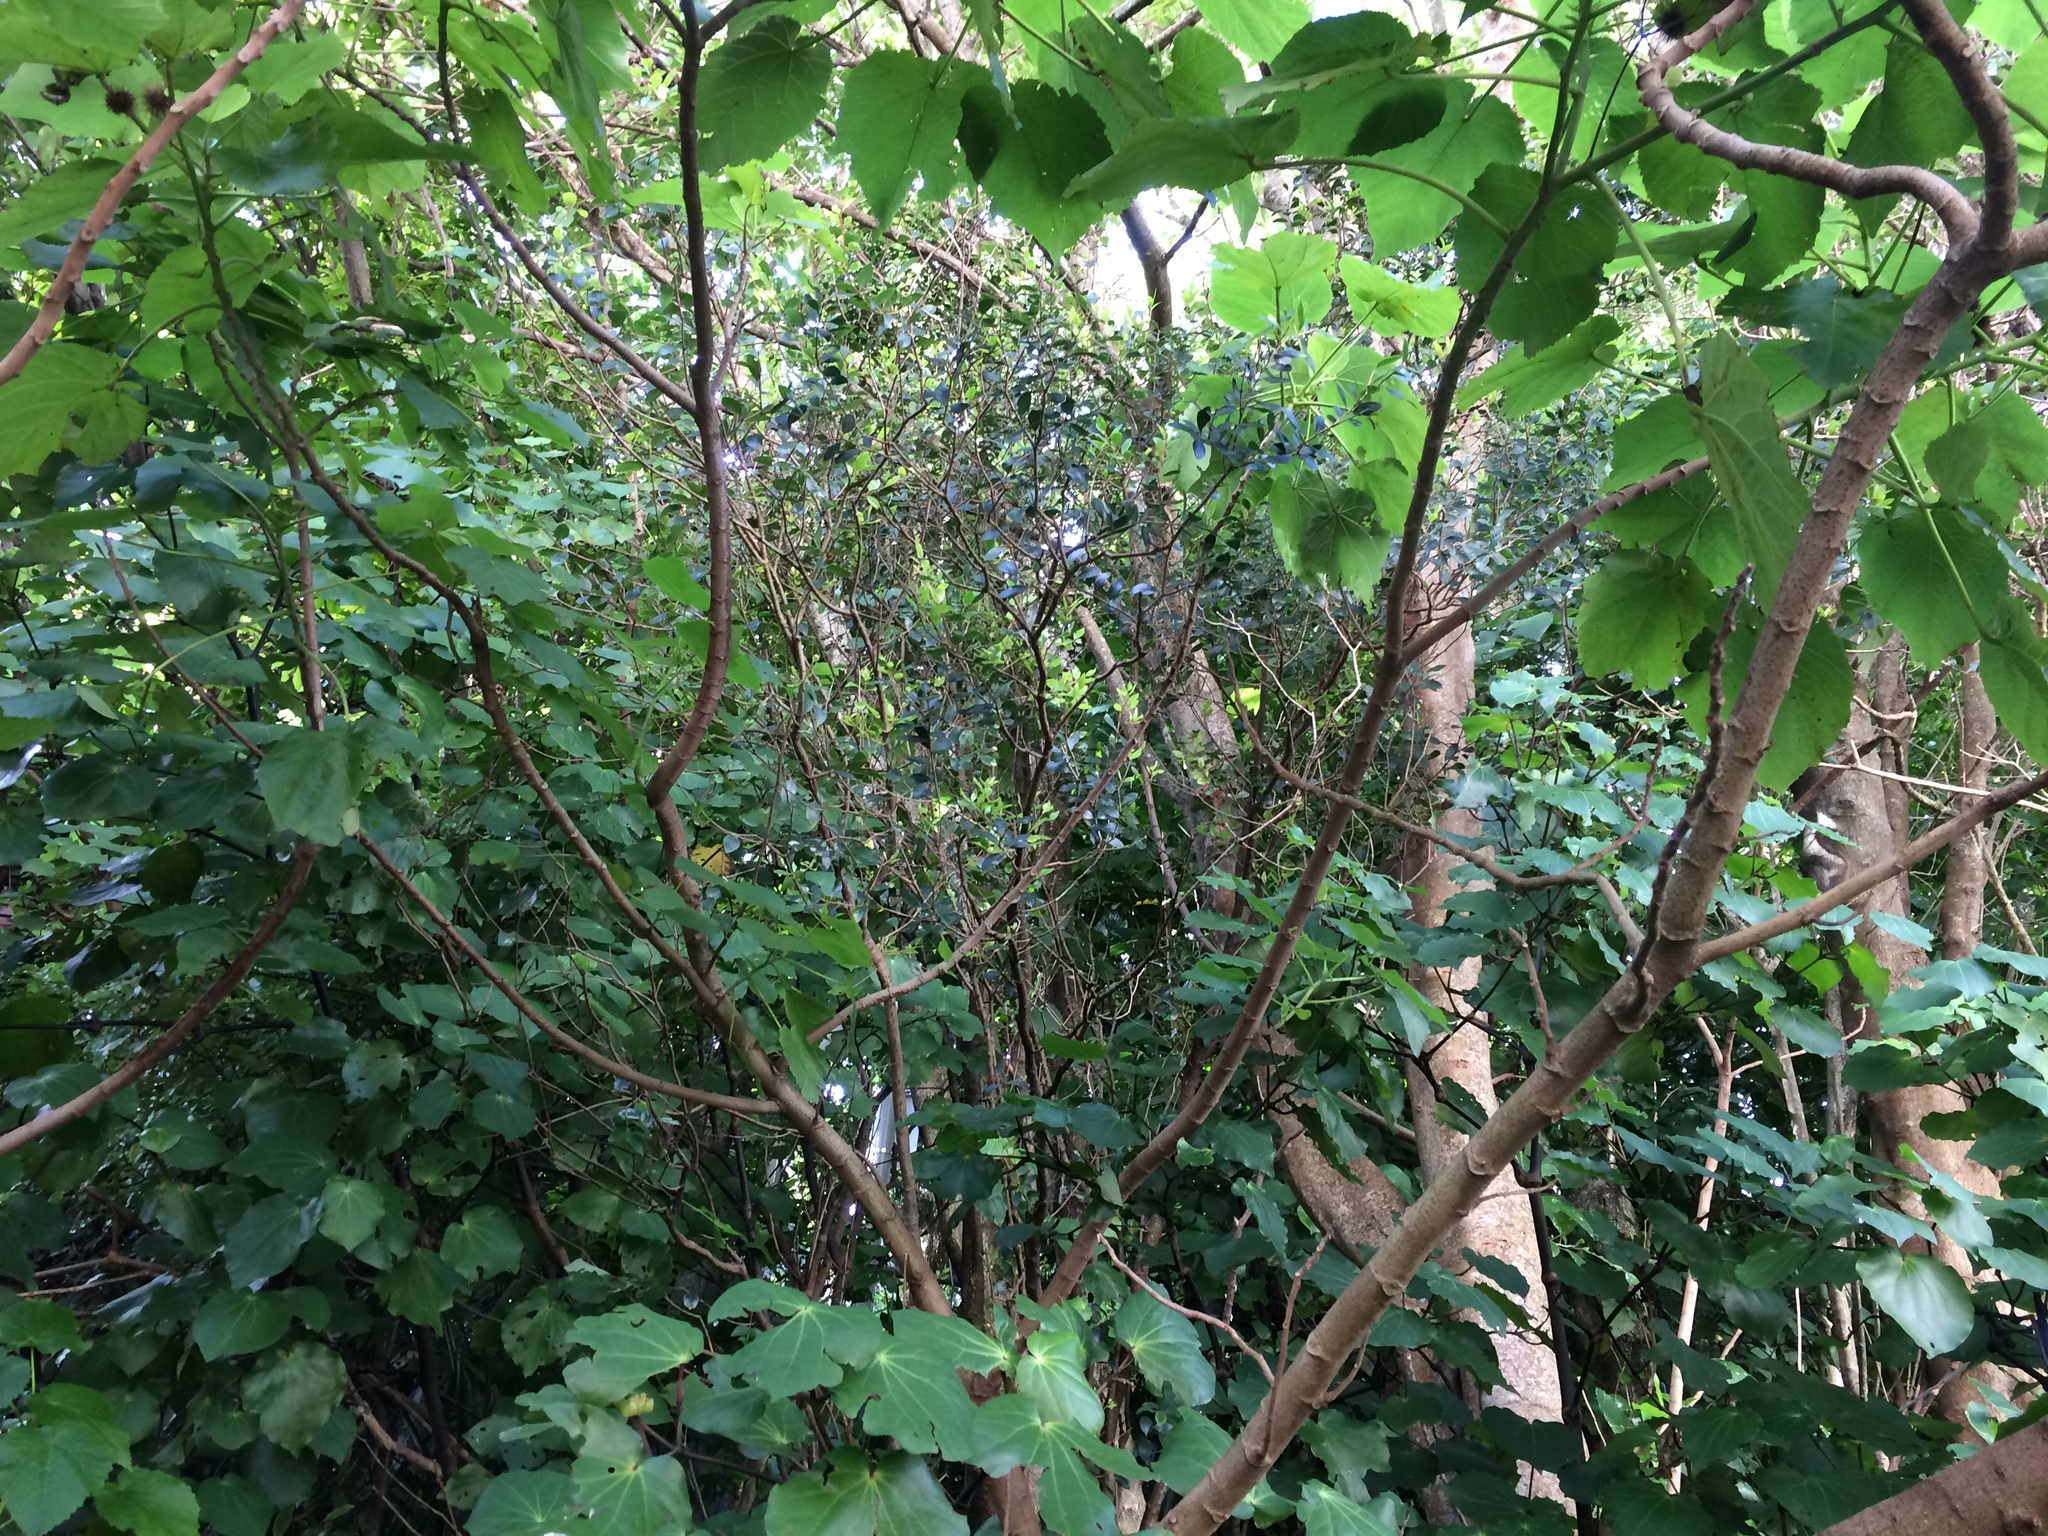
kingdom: Plantae
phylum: Tracheophyta
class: Magnoliopsida
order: Myrtales
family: Myrtaceae
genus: Metrosideros
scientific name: Metrosideros robusta
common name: Northern rata
